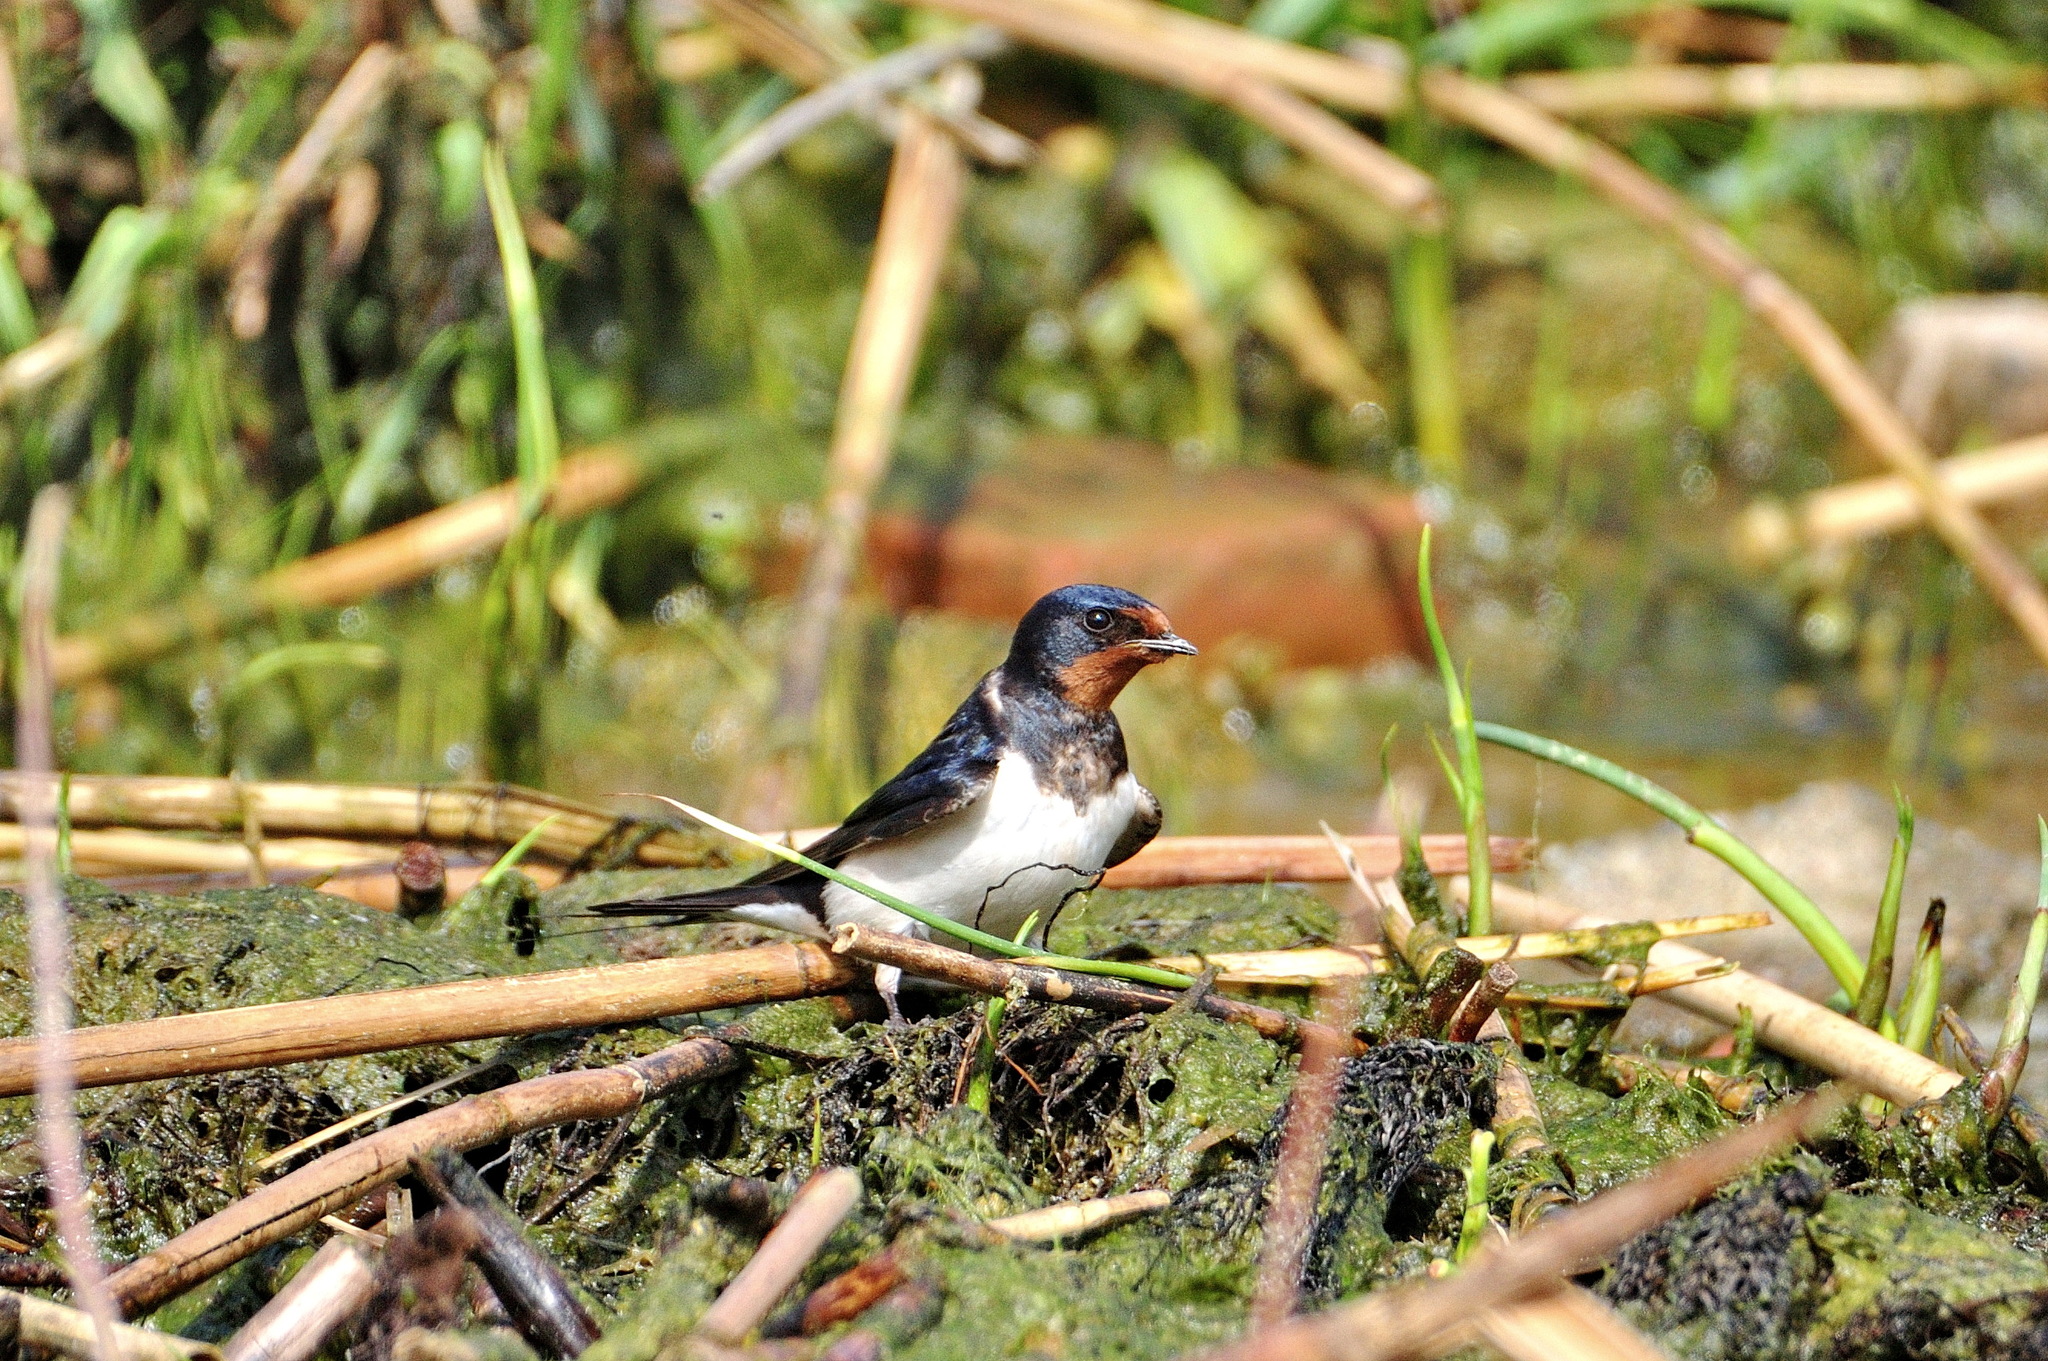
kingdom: Animalia
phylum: Chordata
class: Aves
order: Passeriformes
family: Hirundinidae
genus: Hirundo
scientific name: Hirundo rustica
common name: Barn swallow
